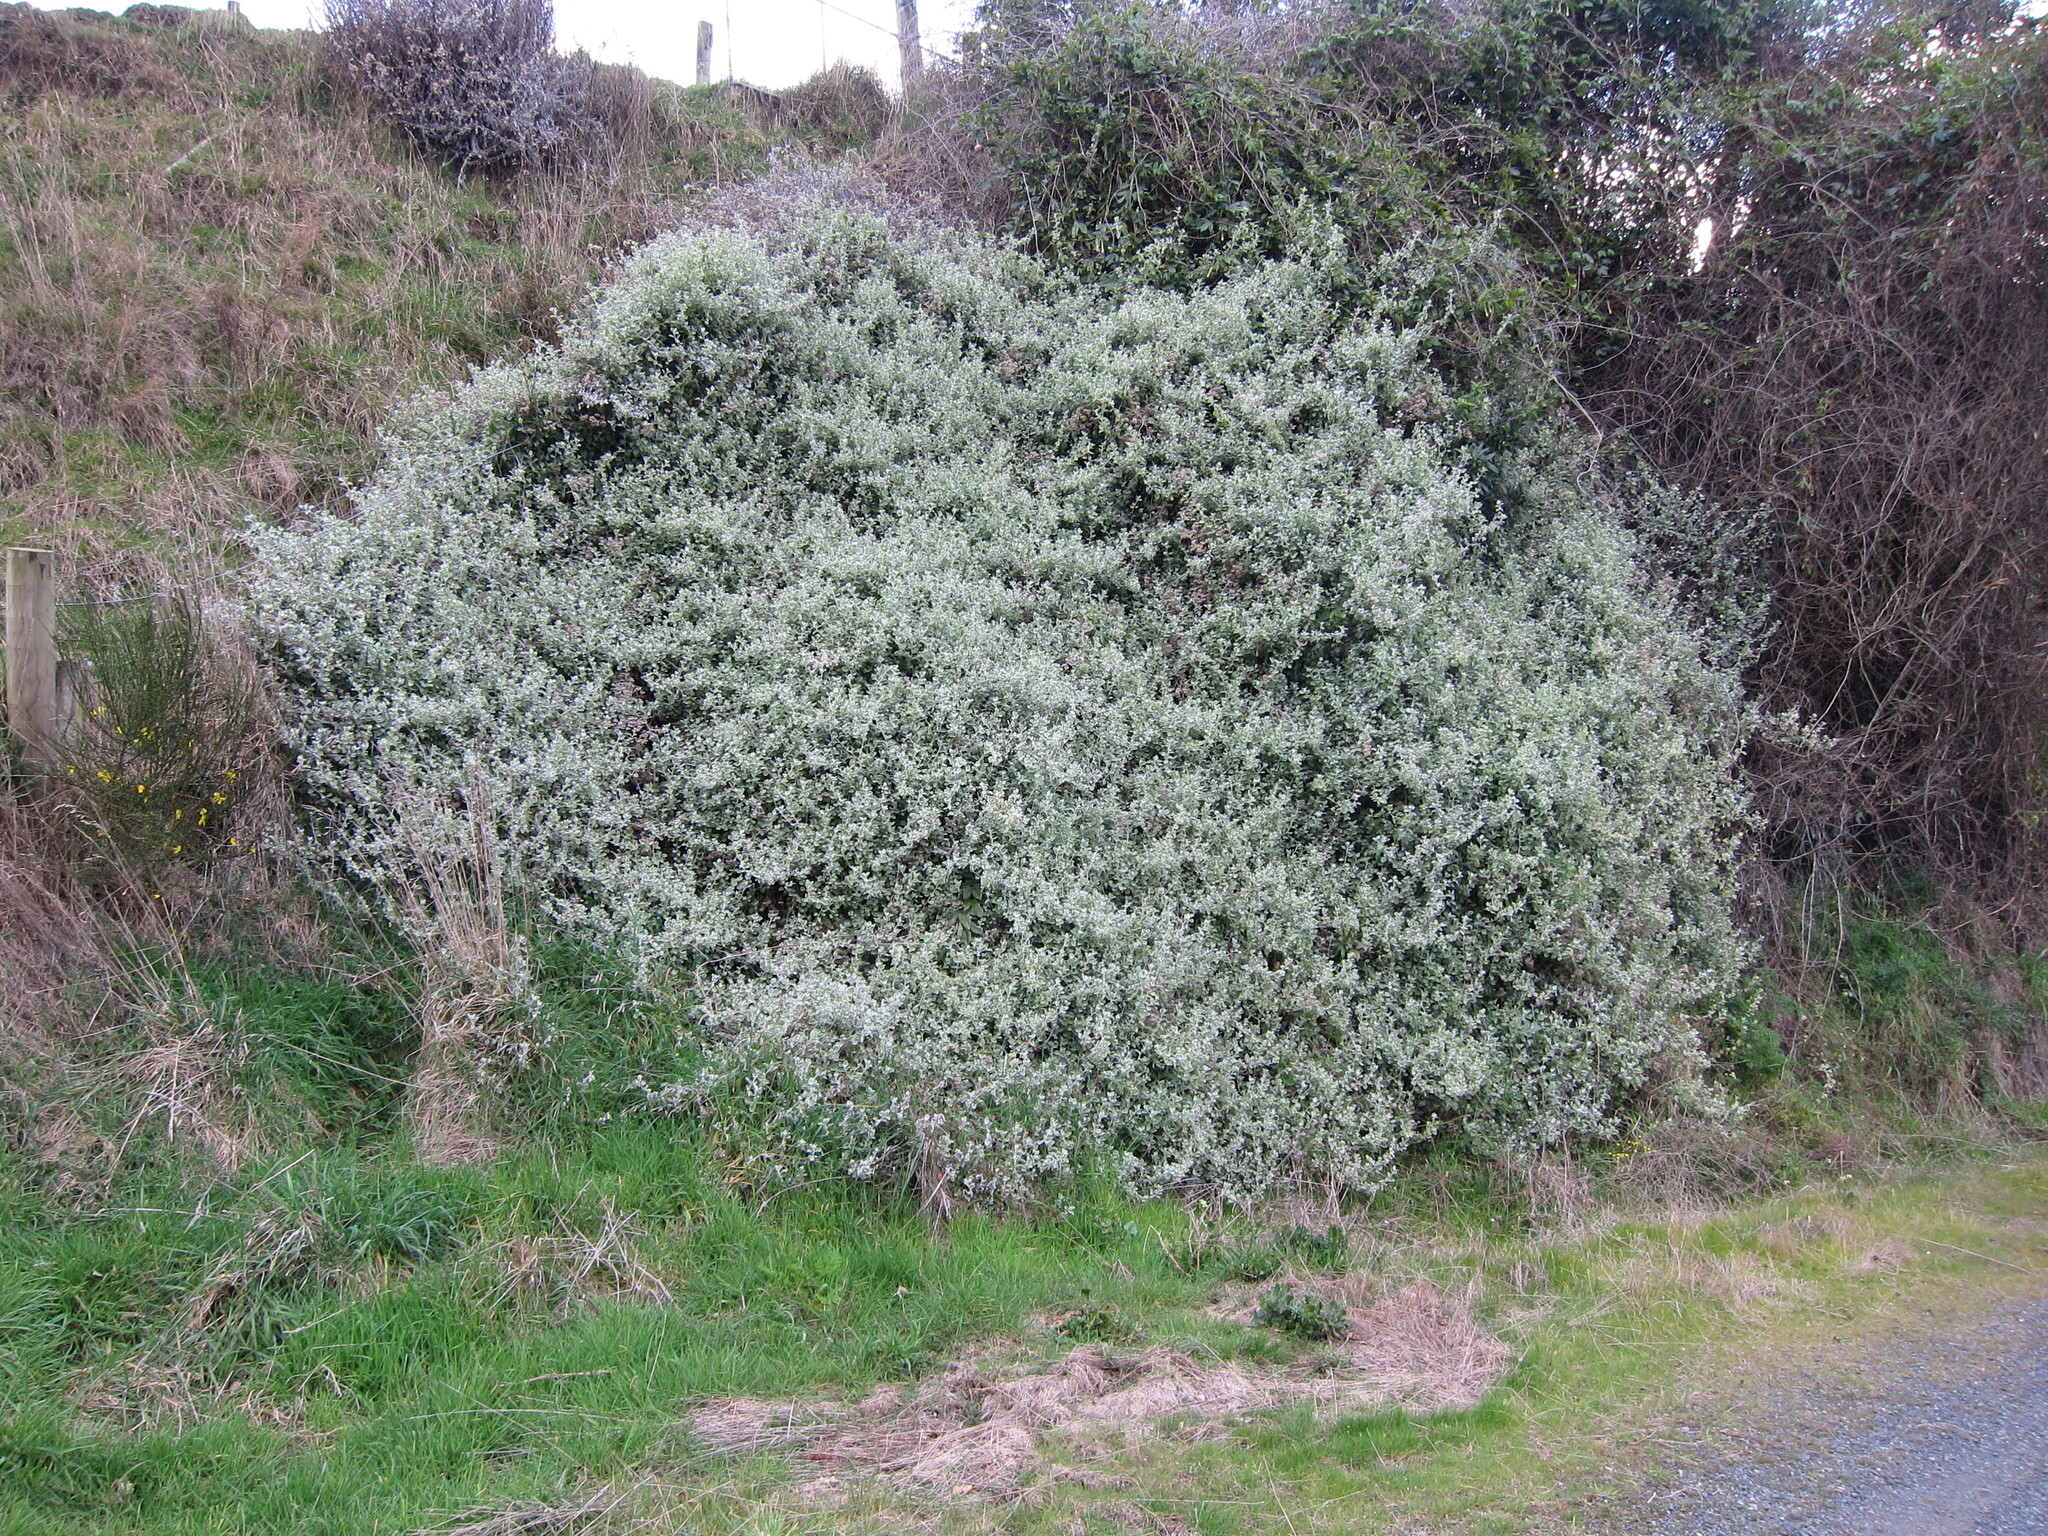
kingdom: Plantae
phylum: Tracheophyta
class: Magnoliopsida
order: Asterales
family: Asteraceae
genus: Helichrysum
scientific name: Helichrysum petiolare
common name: Licorice-plant
